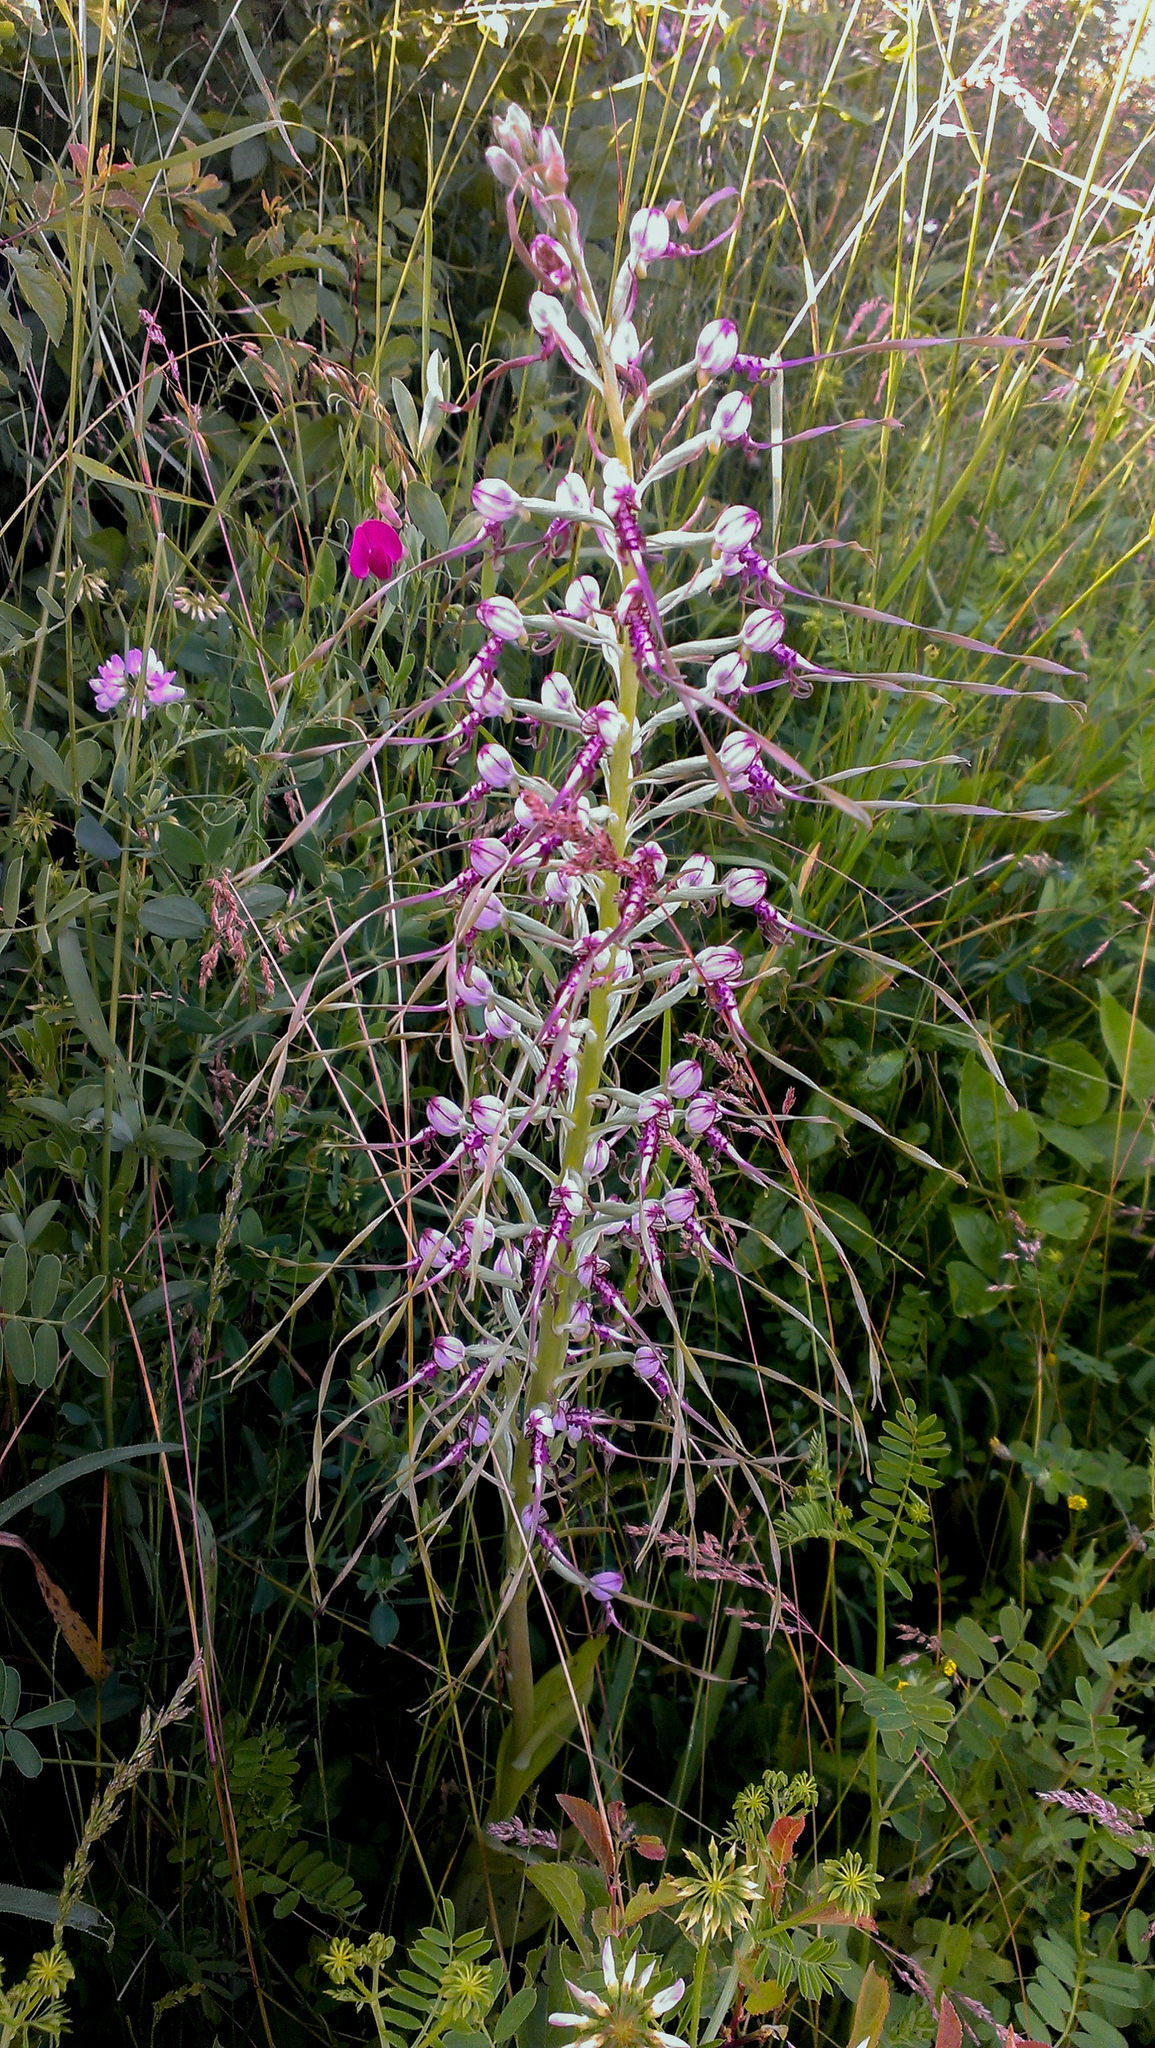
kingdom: Plantae
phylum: Tracheophyta
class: Liliopsida
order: Asparagales
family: Orchidaceae
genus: Himantoglossum
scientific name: Himantoglossum adriaticum
